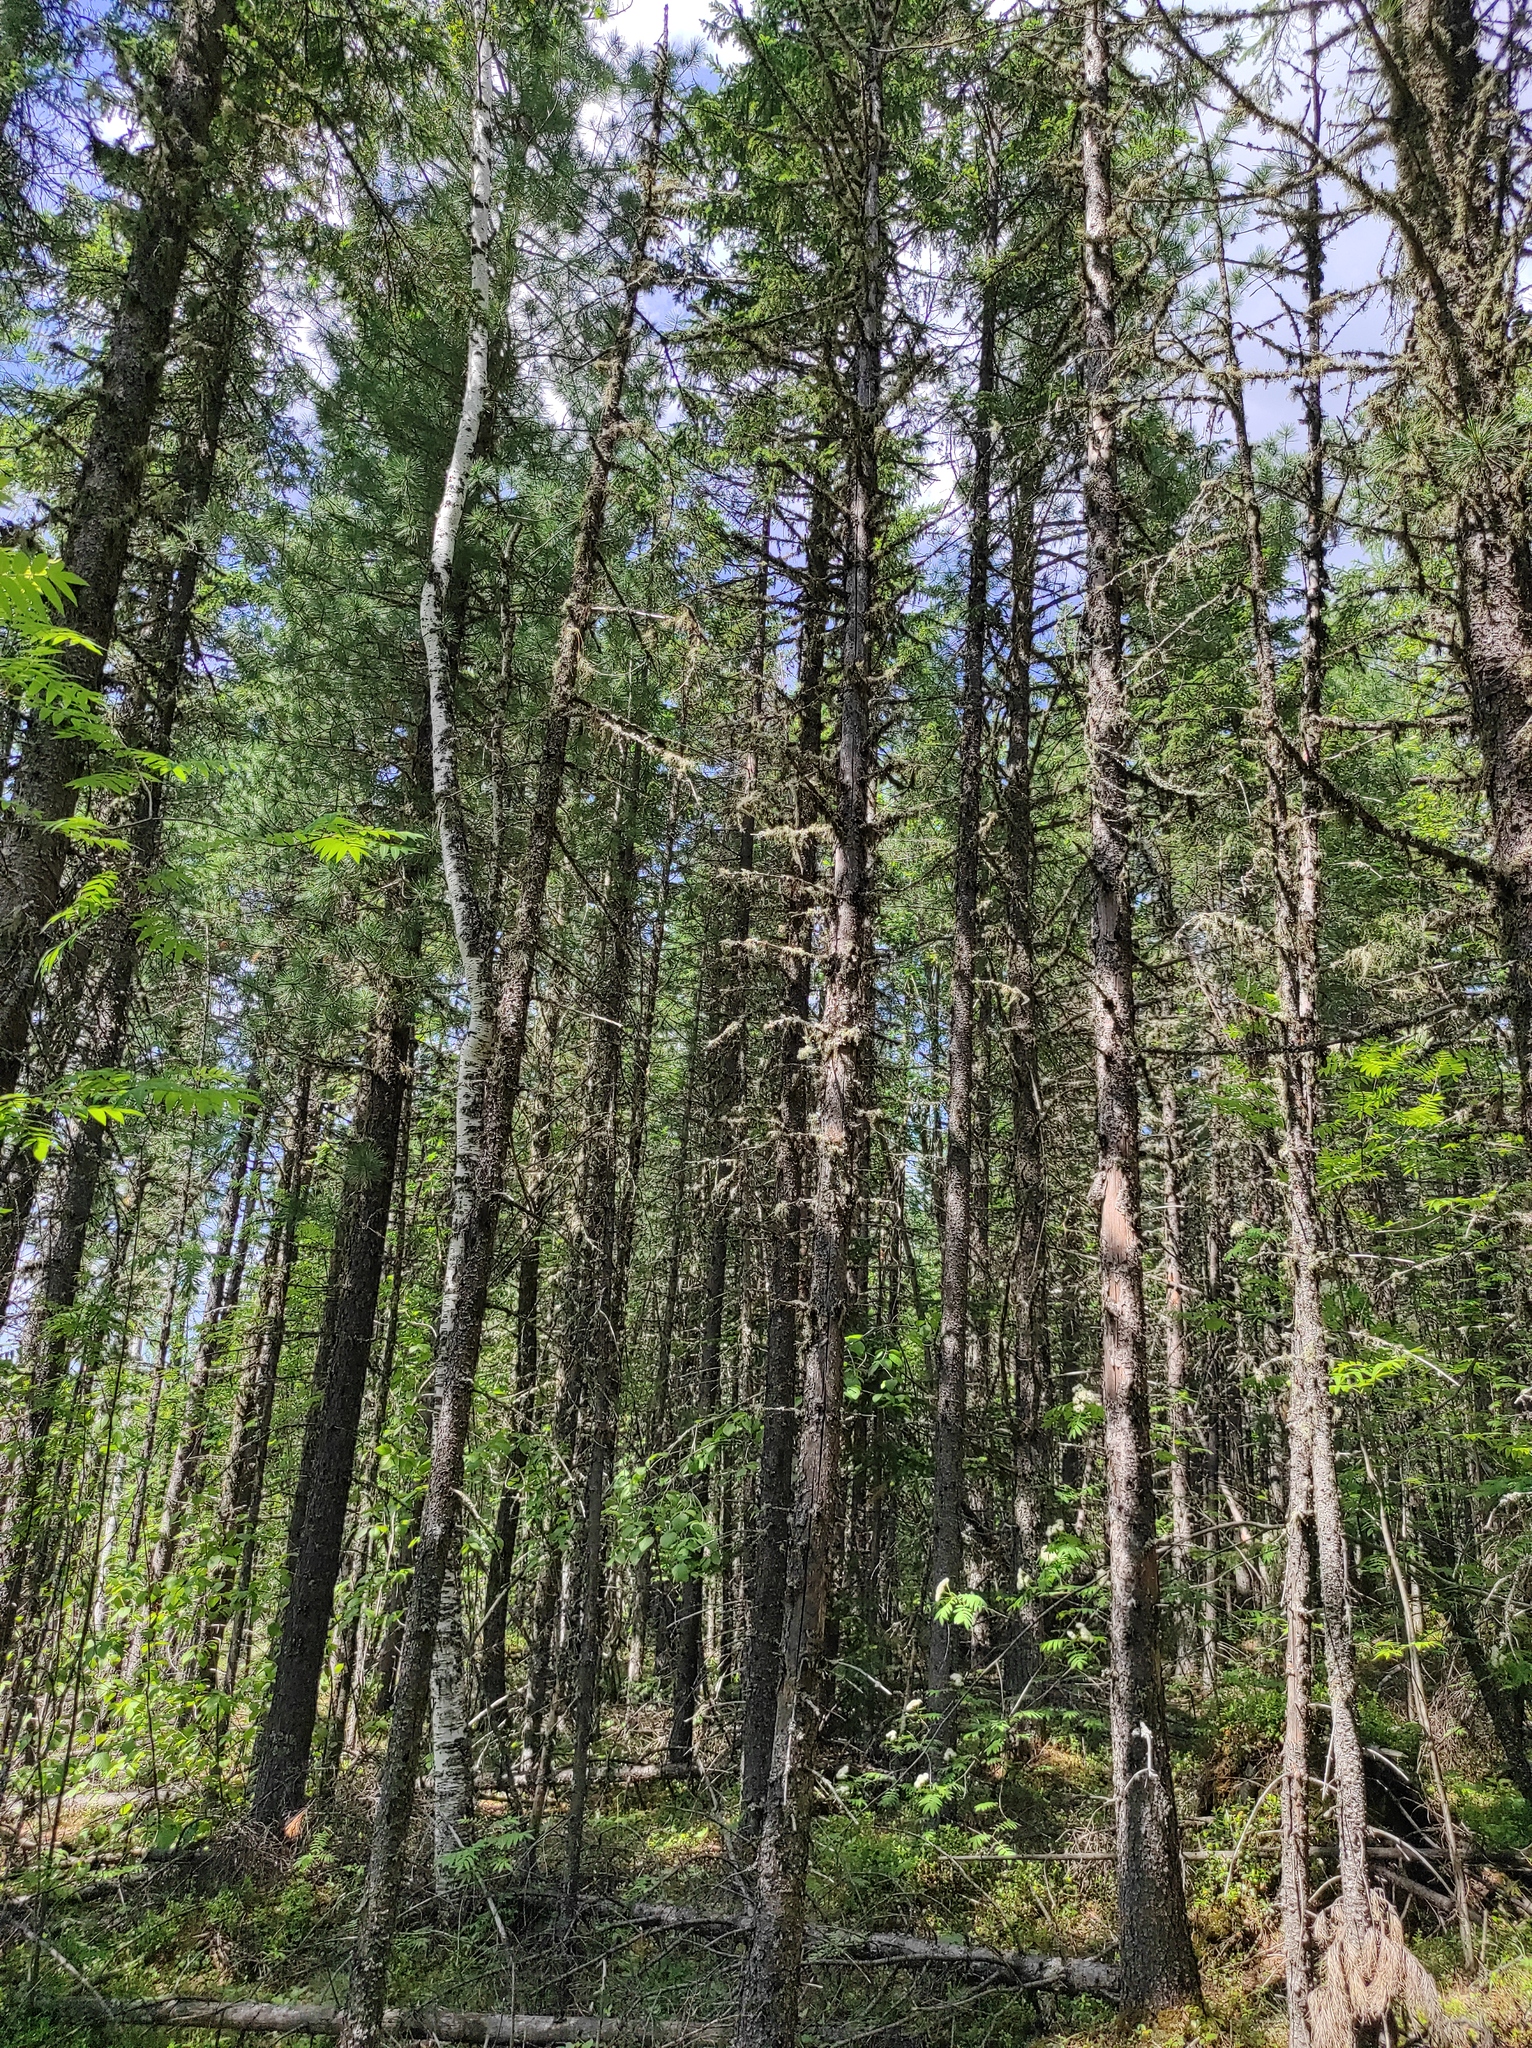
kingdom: Plantae
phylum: Tracheophyta
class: Pinopsida
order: Pinales
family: Pinaceae
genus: Picea
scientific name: Picea obovata
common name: Siberian spruce
